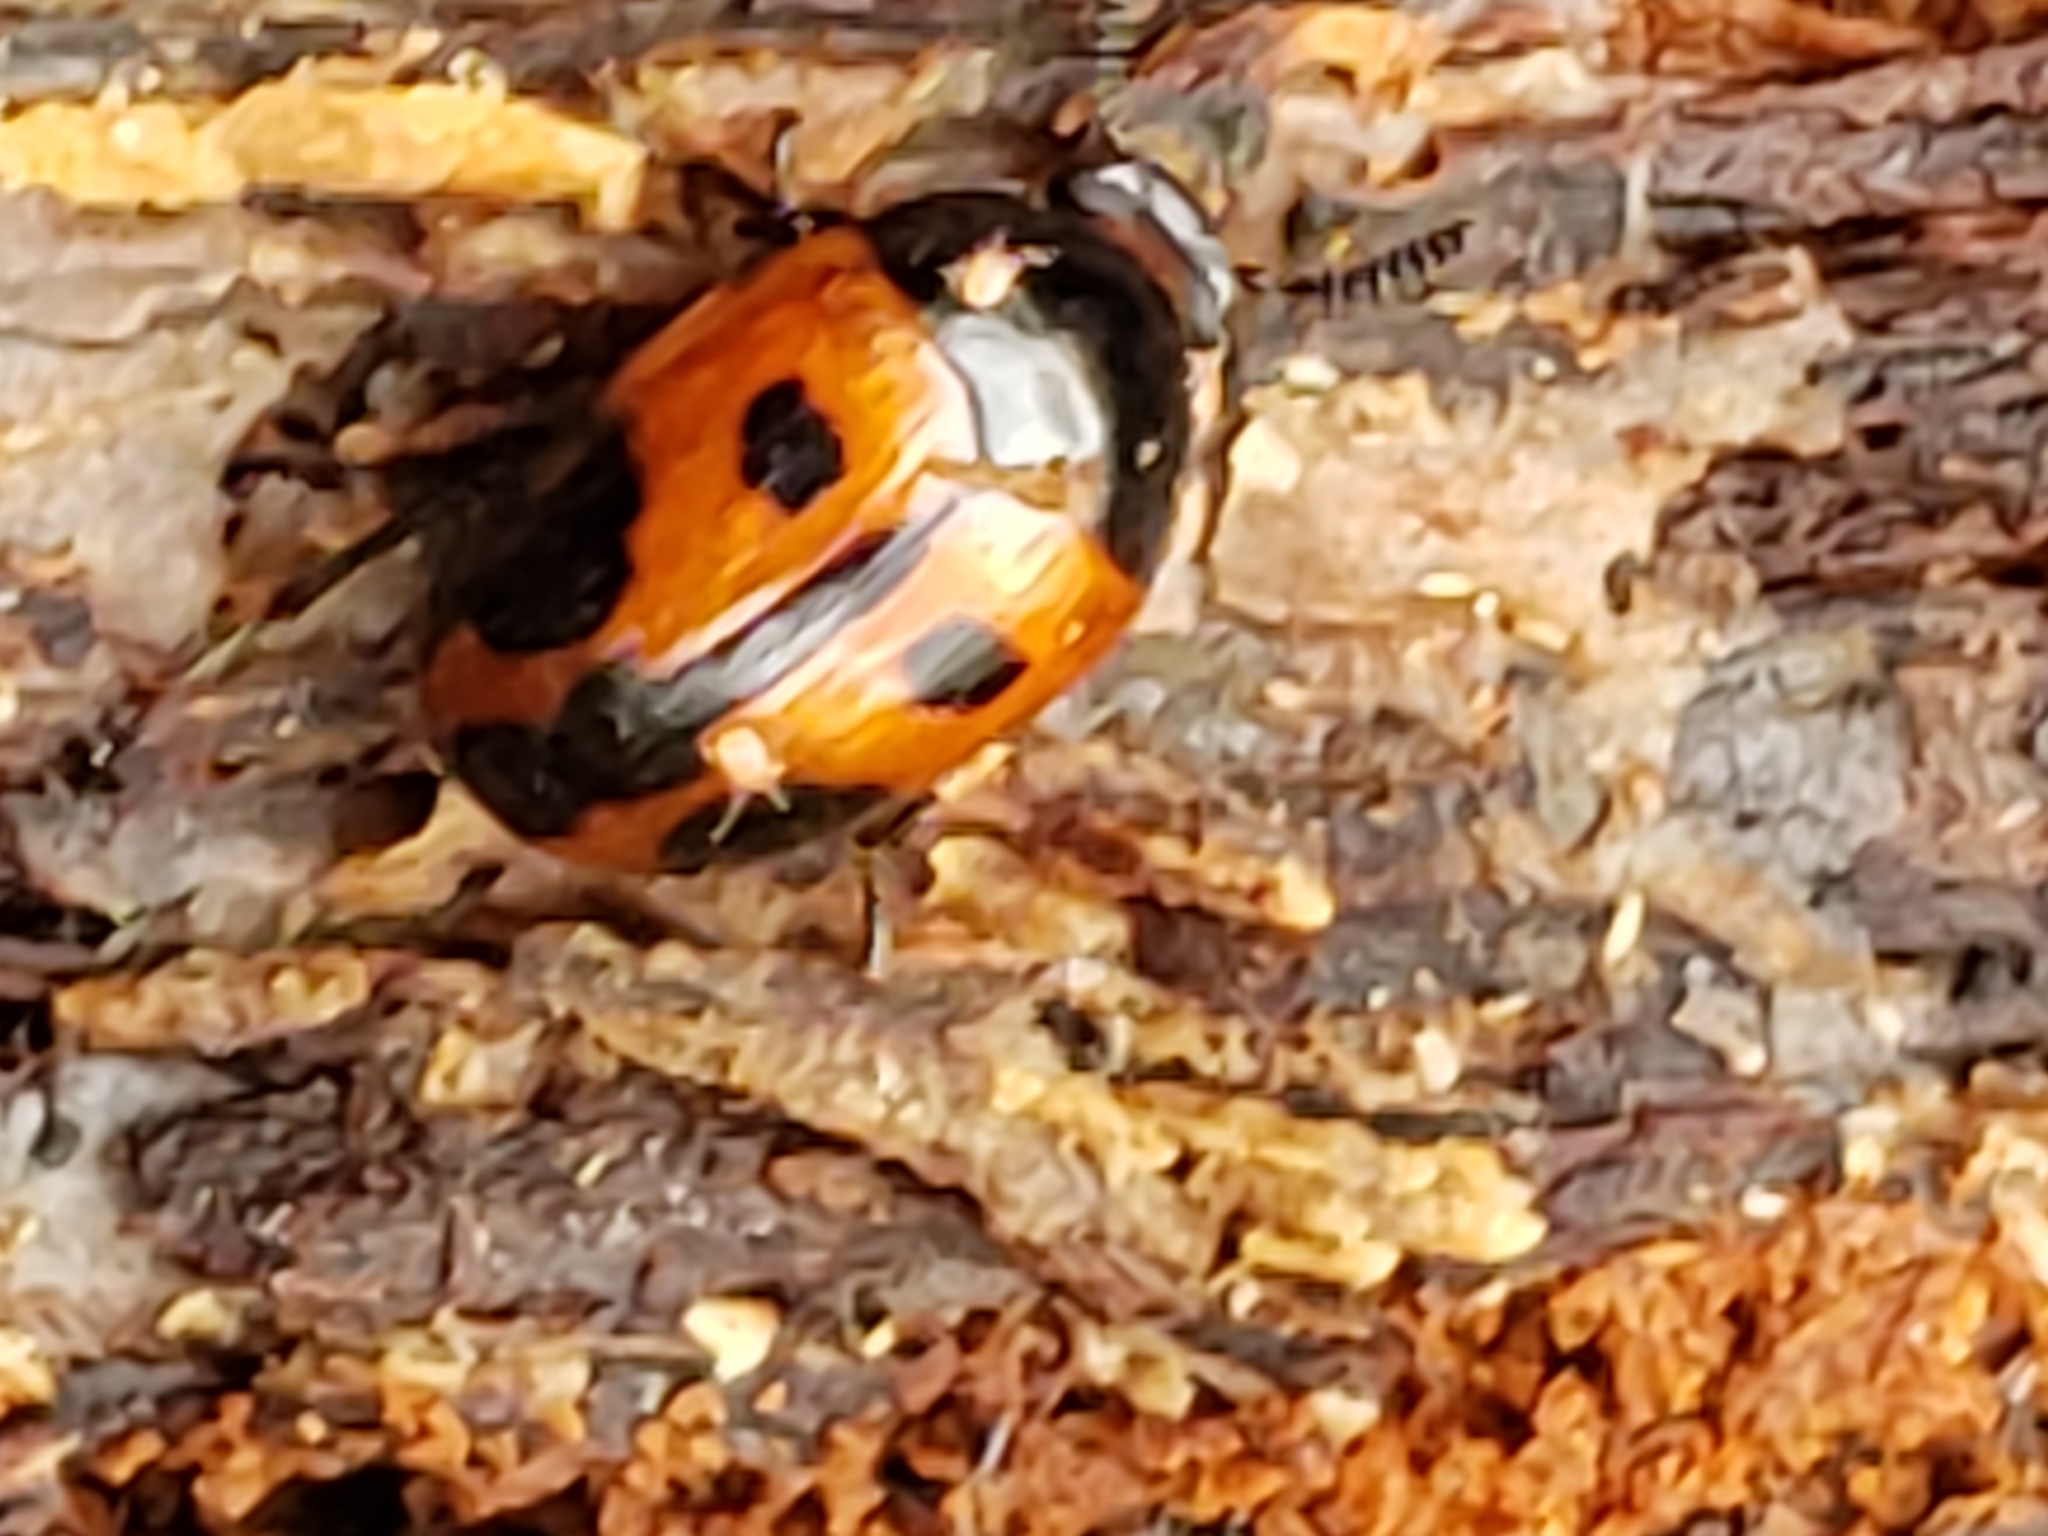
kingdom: Animalia
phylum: Arthropoda
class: Insecta
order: Coleoptera
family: Tenebrionidae
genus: Diaperis
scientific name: Diaperis maculata
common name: Darkling beetle
